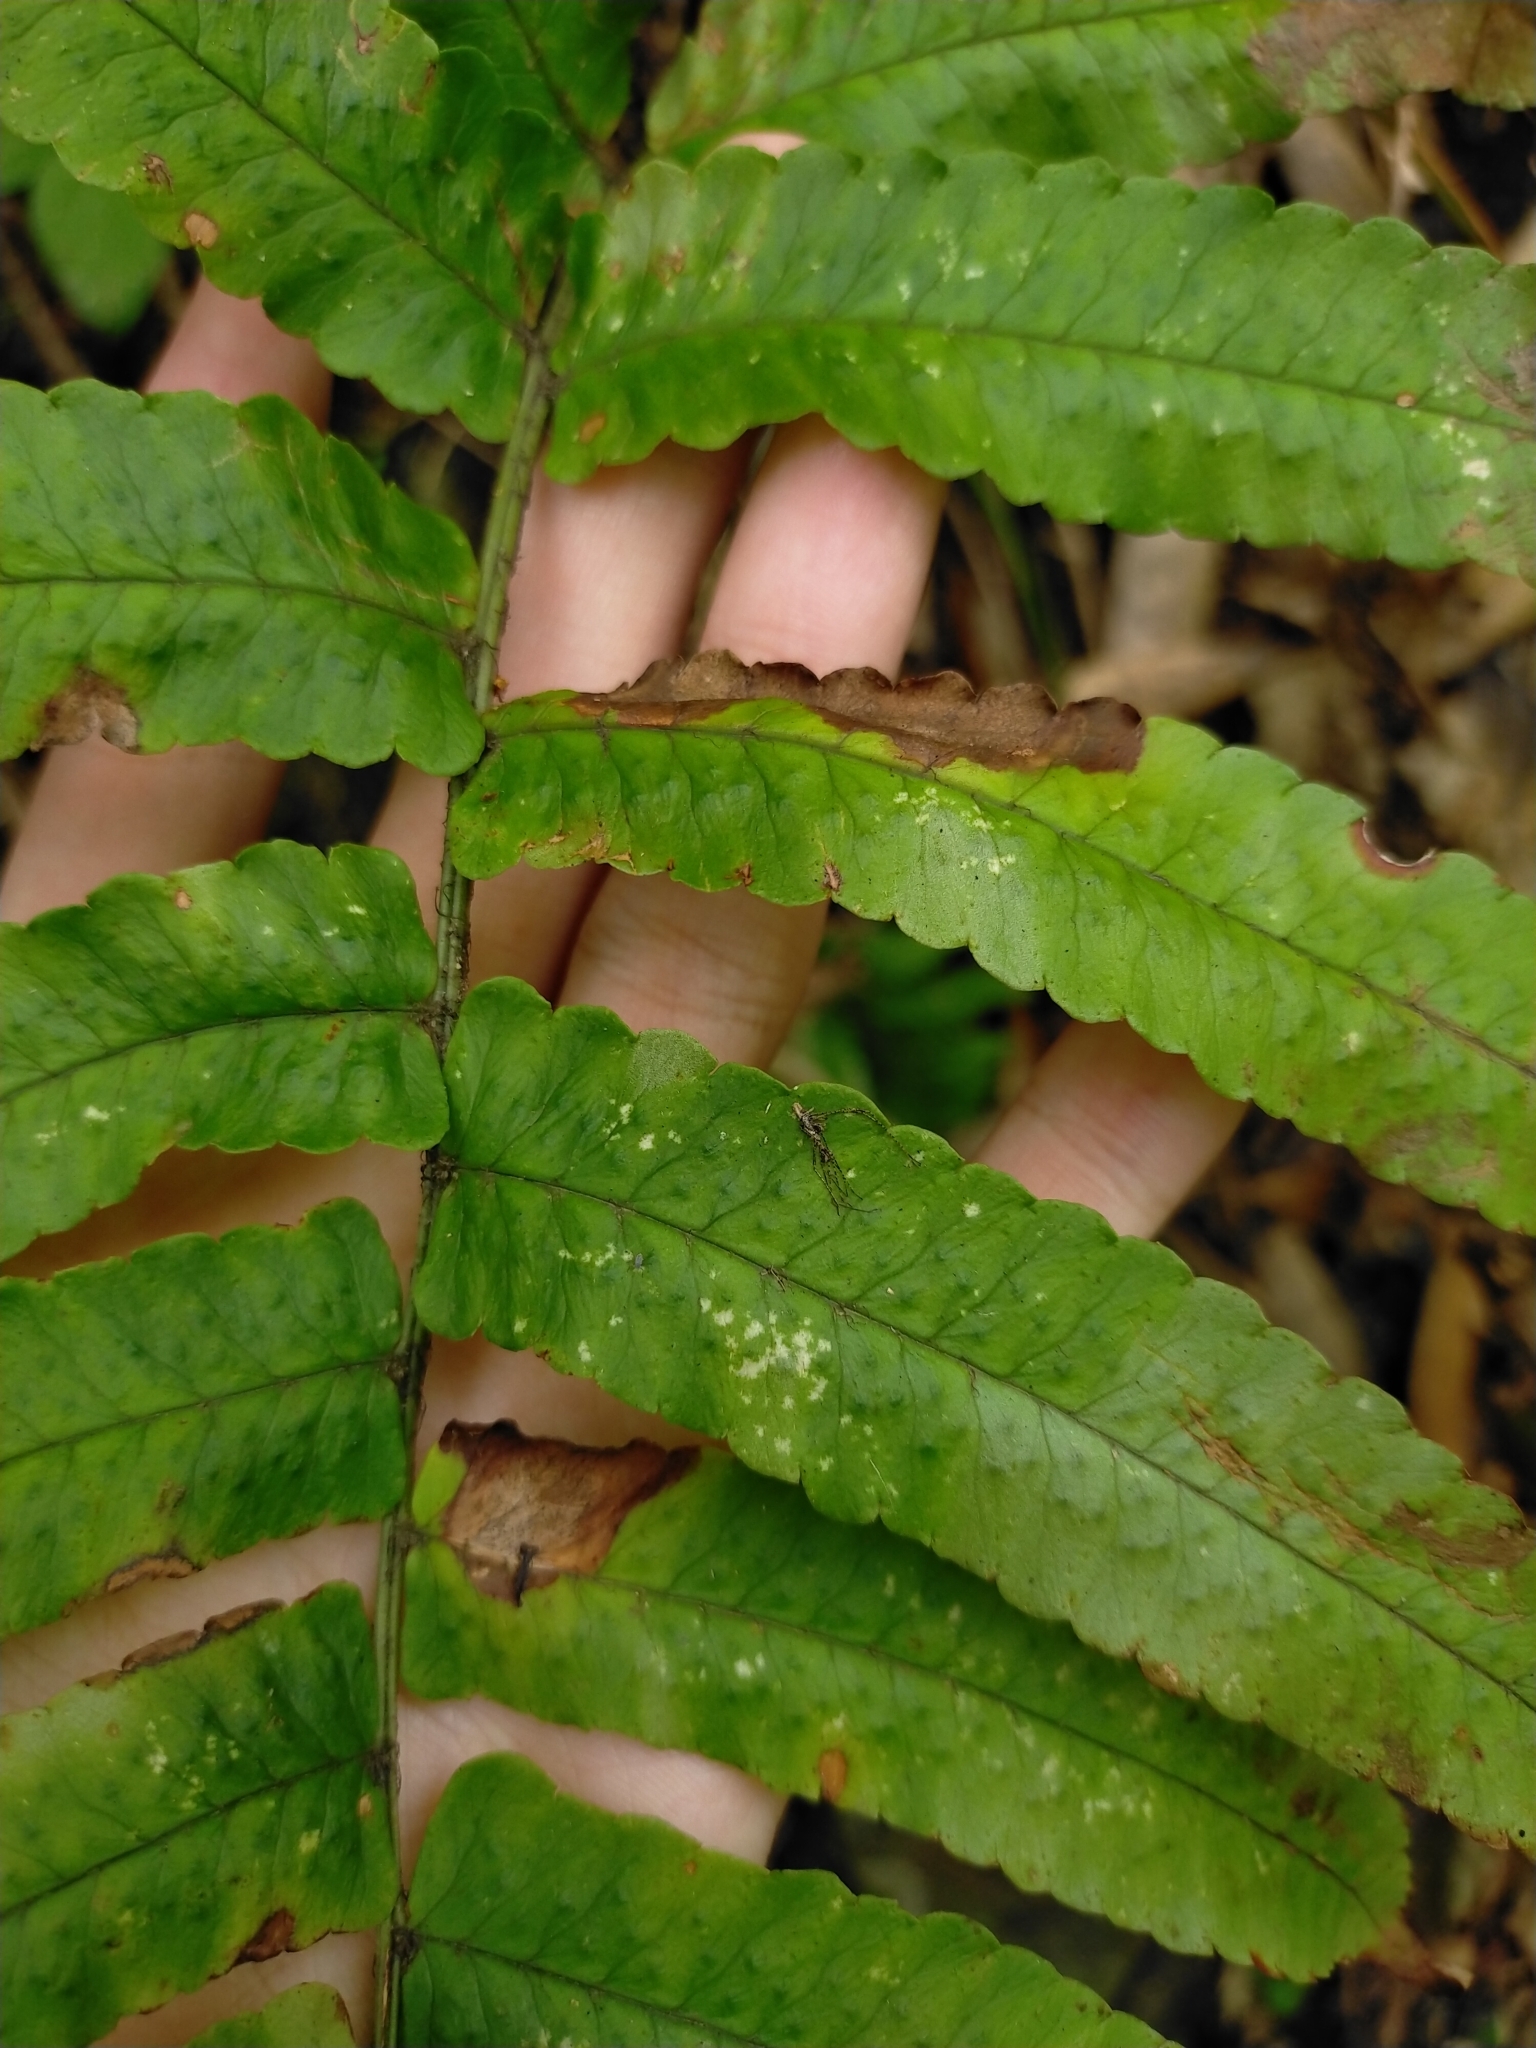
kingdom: Plantae
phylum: Tracheophyta
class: Polypodiopsida
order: Polypodiales
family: Dryopteridaceae
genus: Dryopteris
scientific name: Dryopteris scottii
